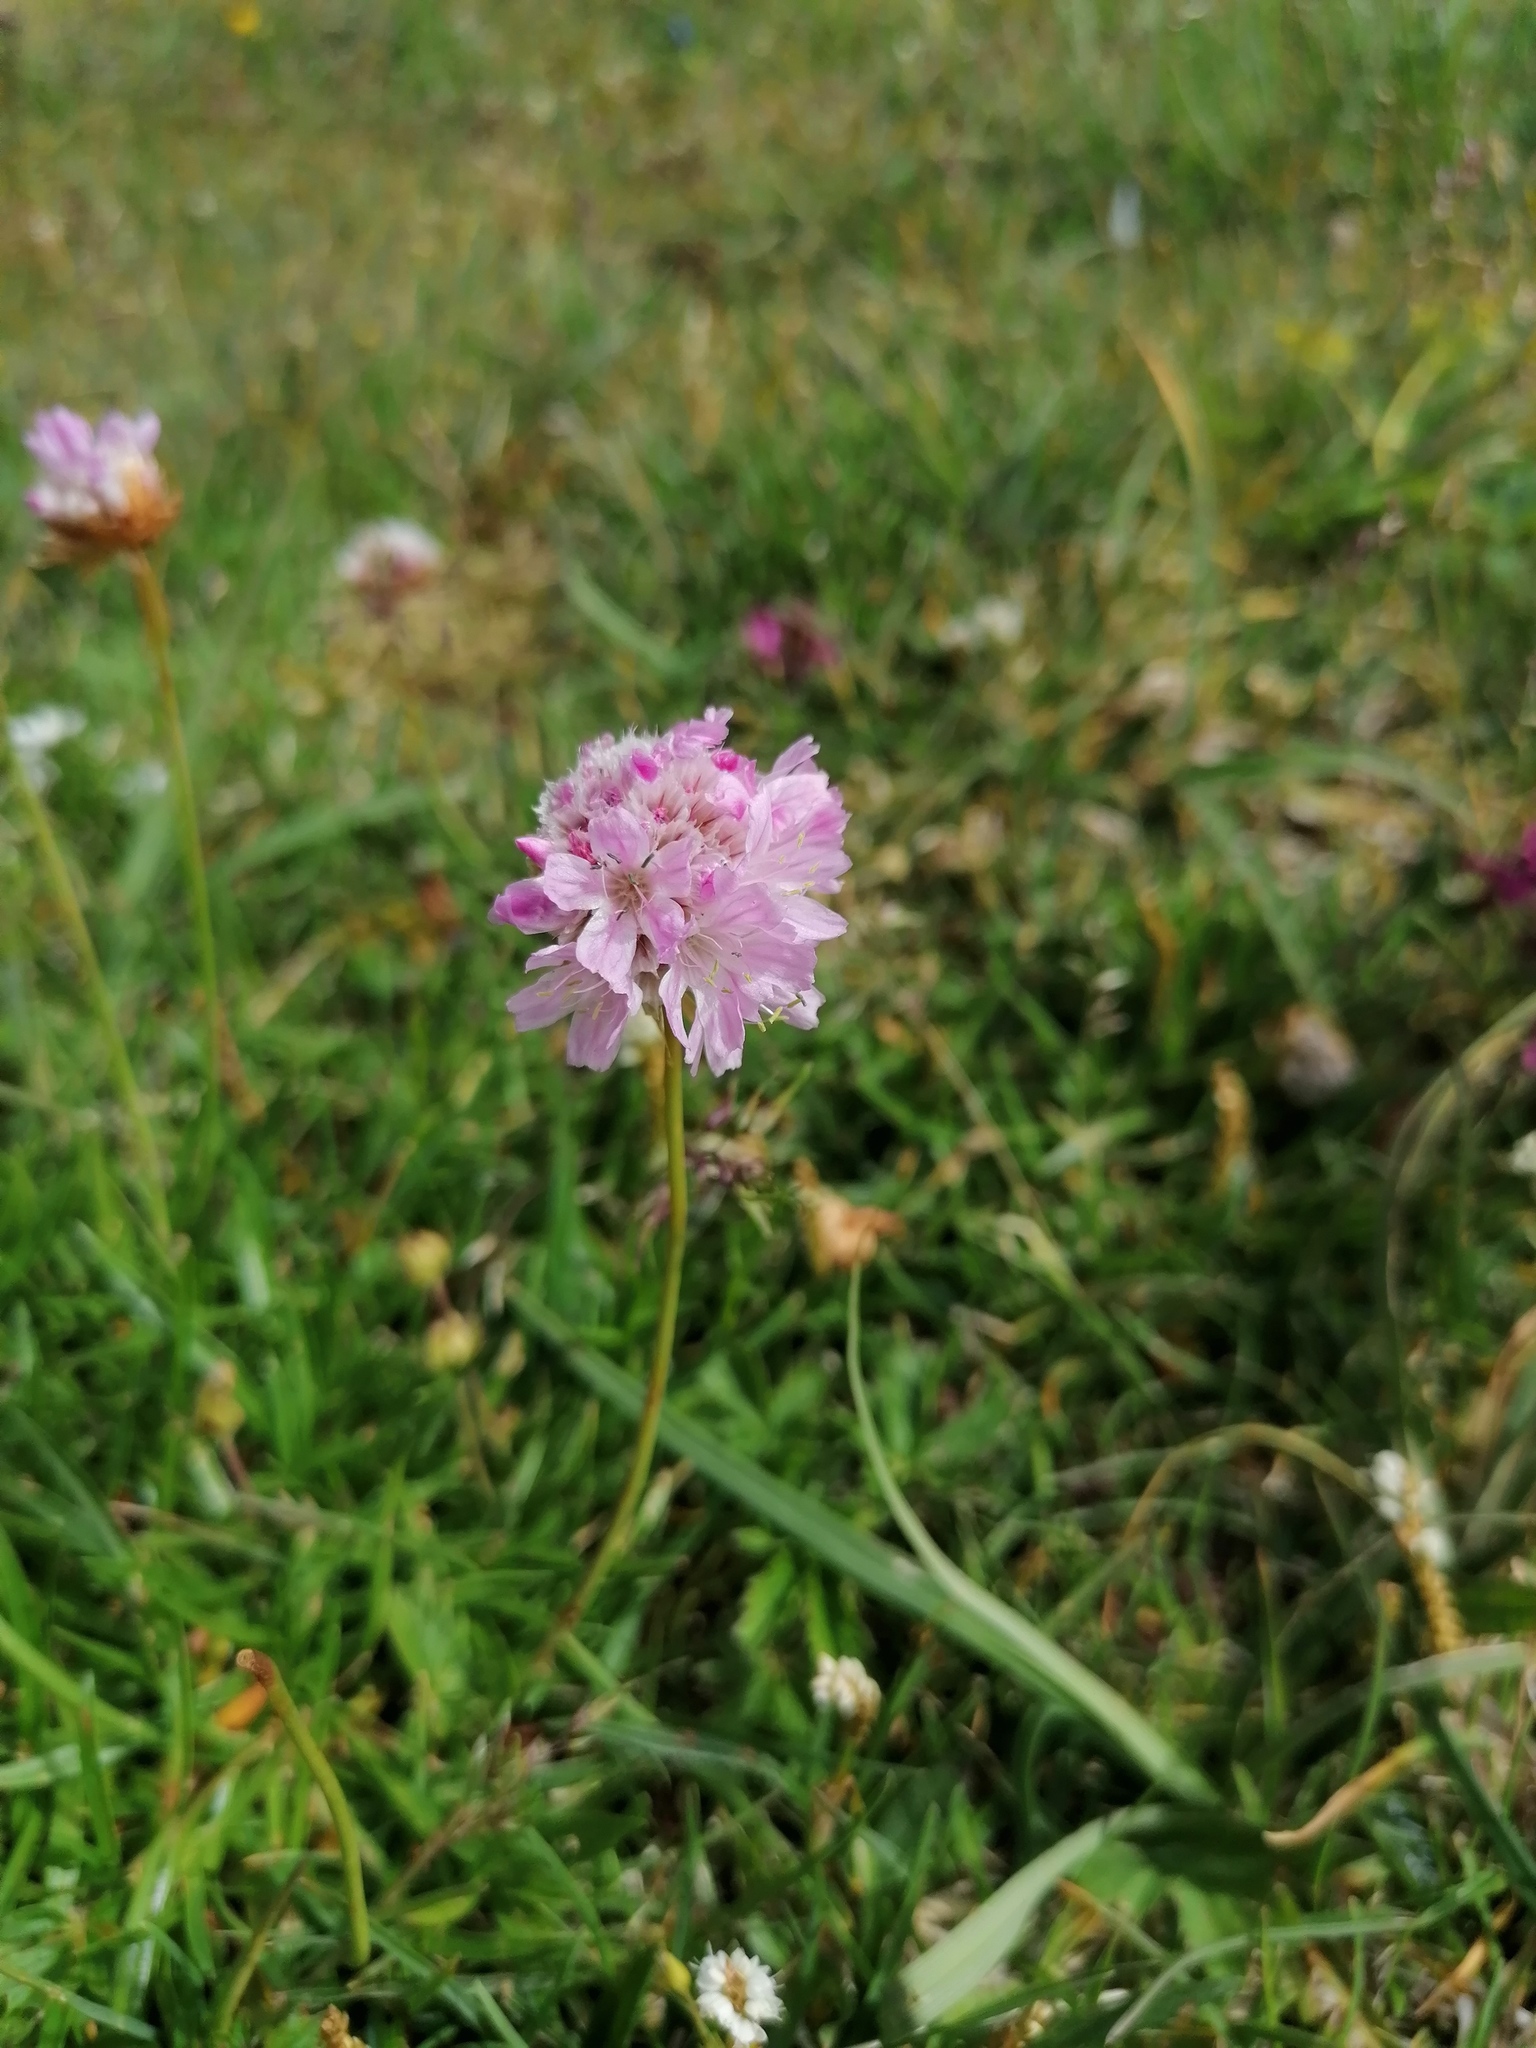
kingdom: Plantae
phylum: Tracheophyta
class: Magnoliopsida
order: Caryophyllales
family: Plumbaginaceae
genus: Armeria
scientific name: Armeria alpina
